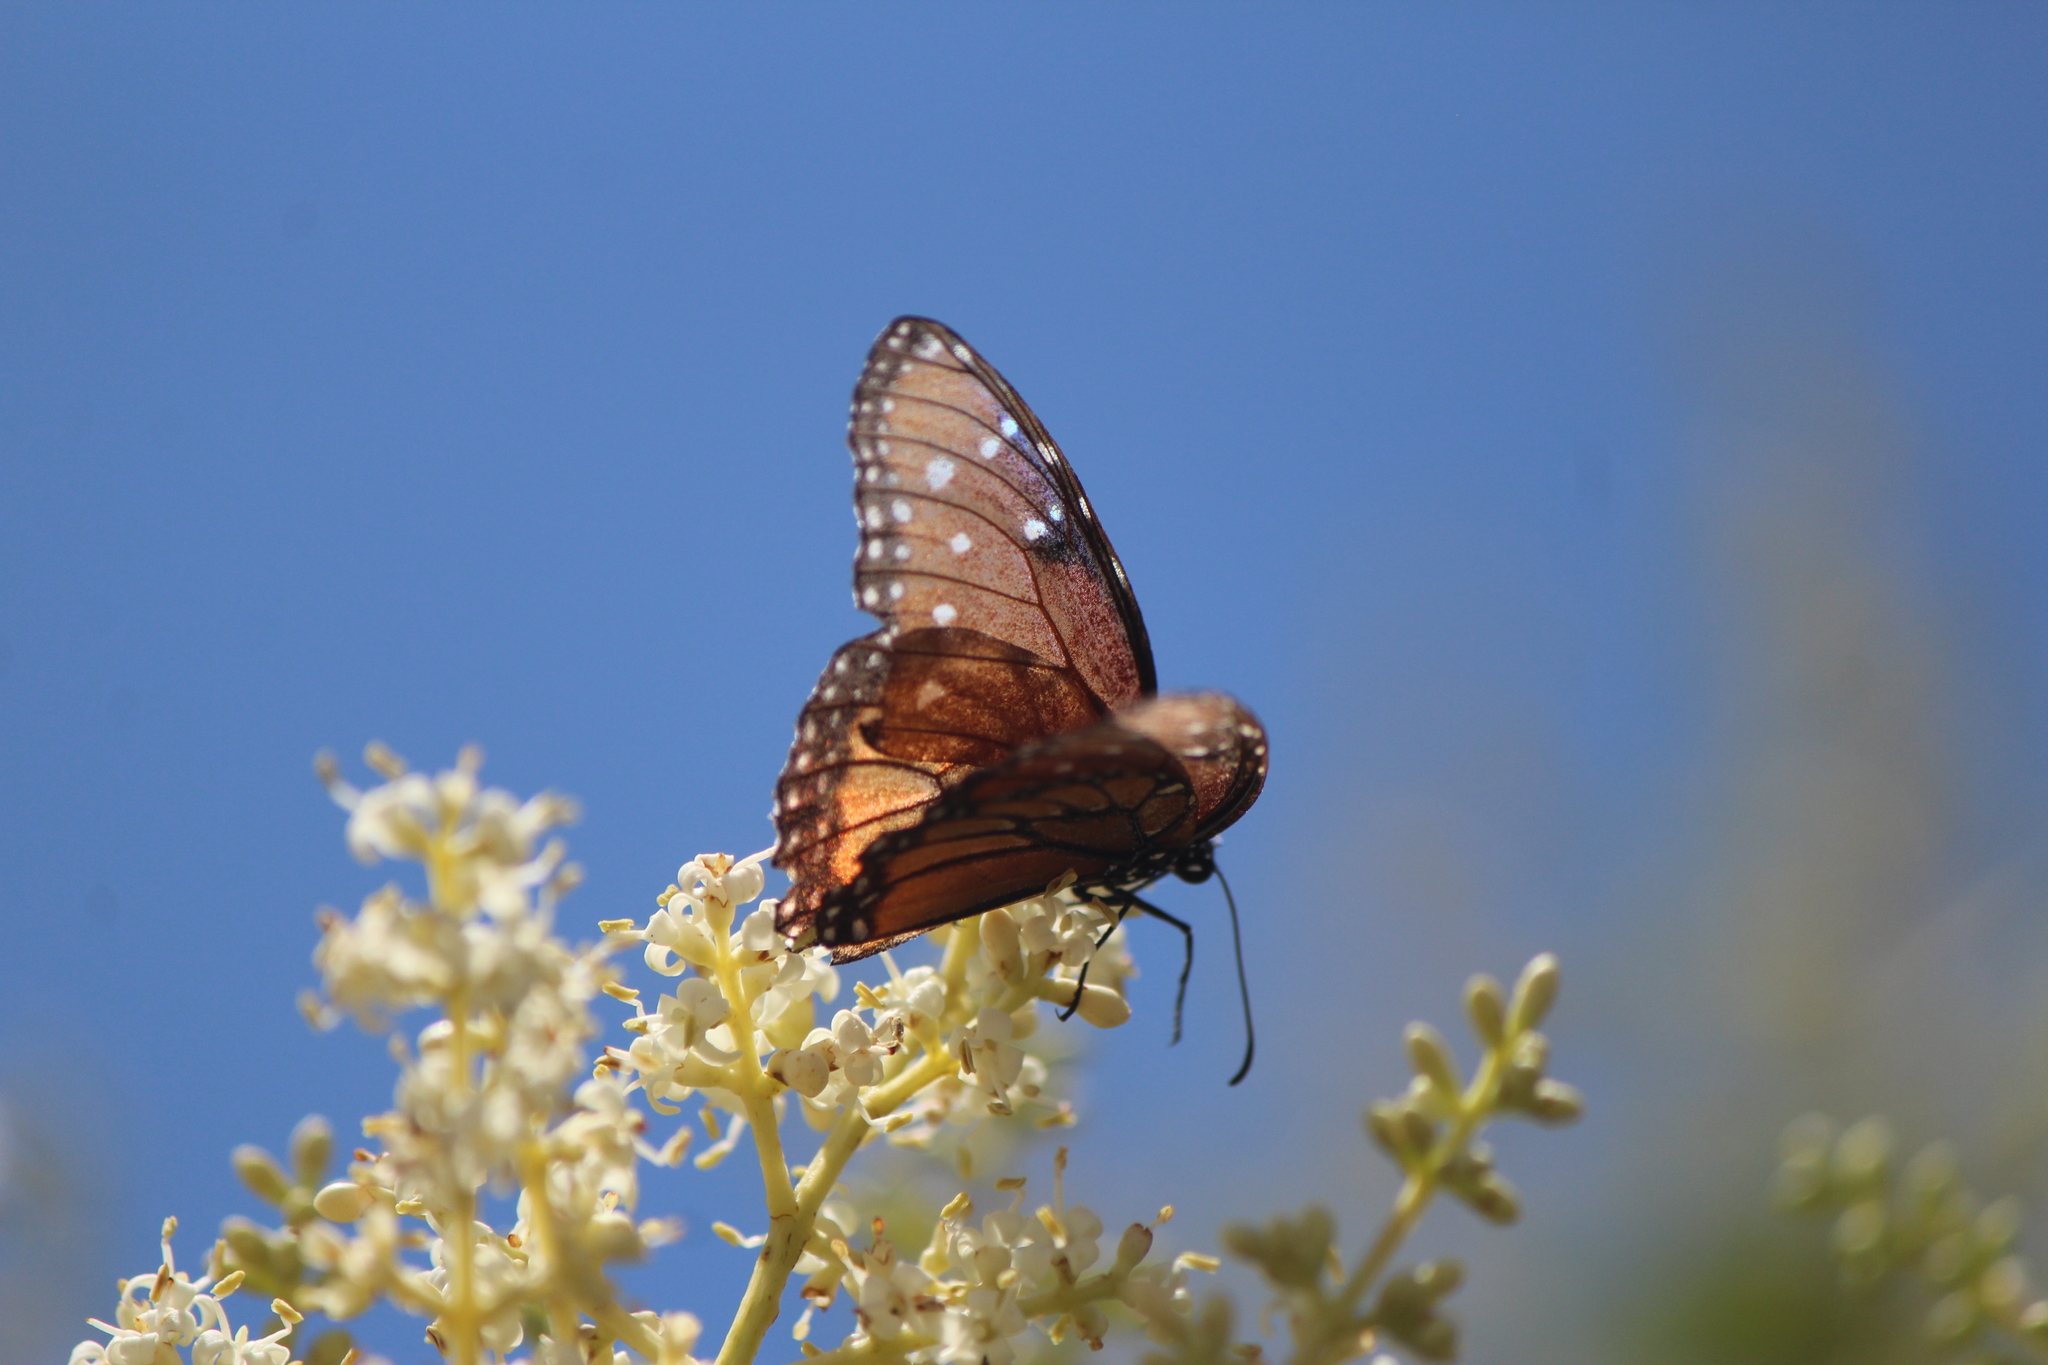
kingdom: Animalia
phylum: Arthropoda
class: Insecta
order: Lepidoptera
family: Nymphalidae
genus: Danaus
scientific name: Danaus gilippus
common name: Queen
